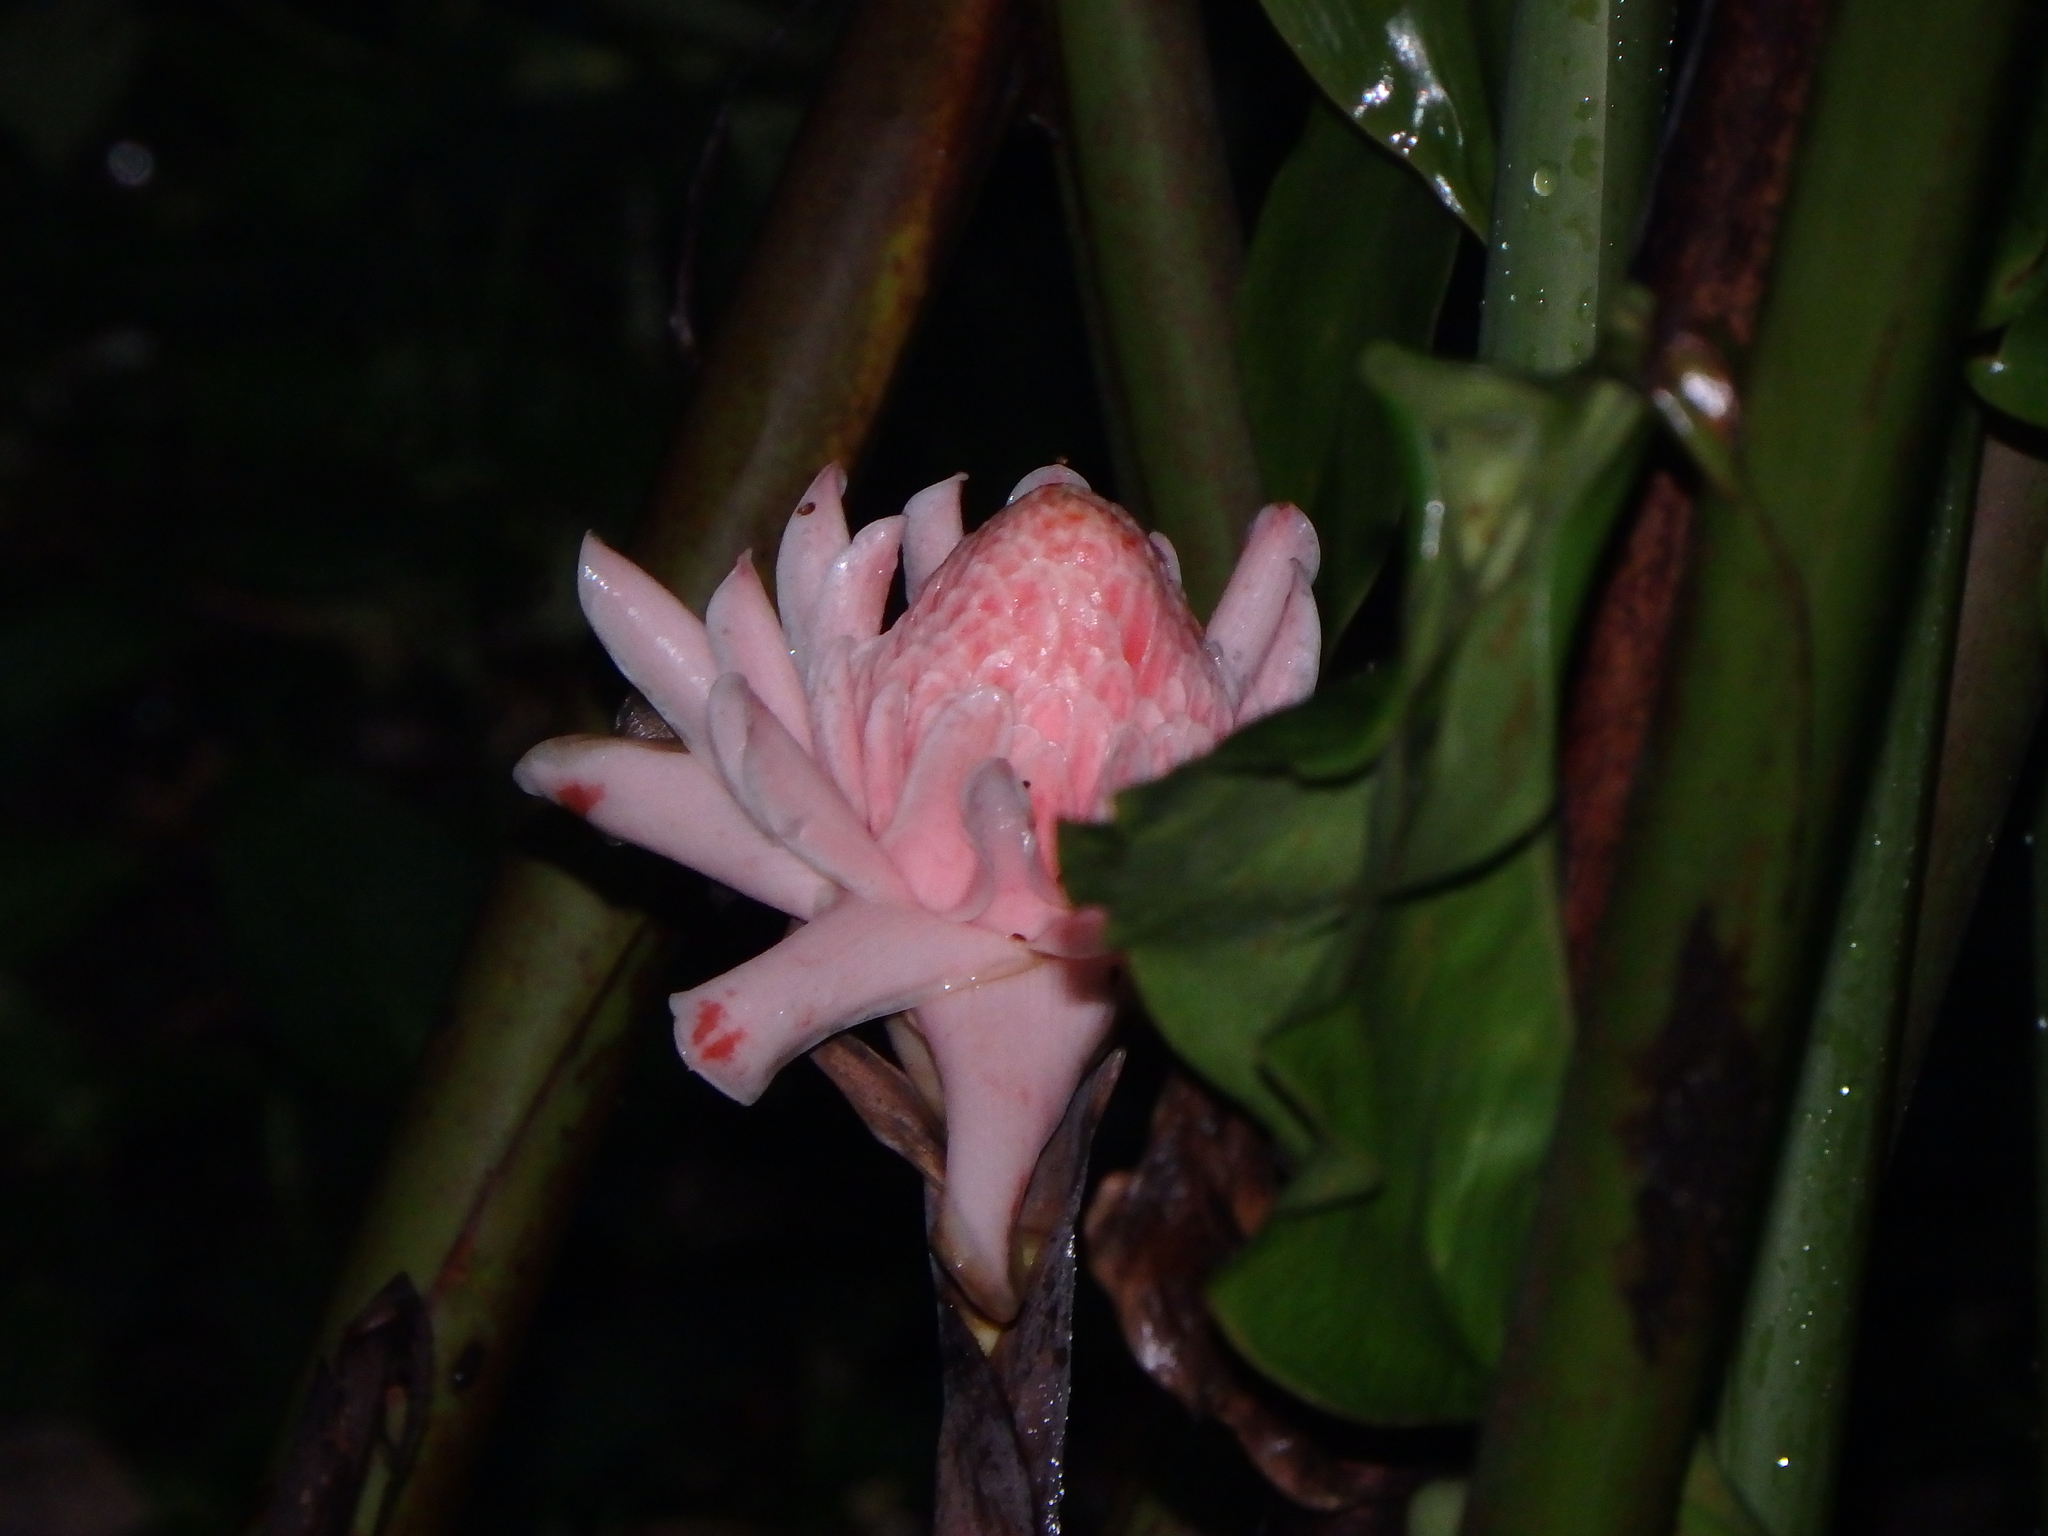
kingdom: Plantae
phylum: Tracheophyta
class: Liliopsida
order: Zingiberales
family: Zingiberaceae
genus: Etlingera
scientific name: Etlingera elatior
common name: Philippine waxflower
